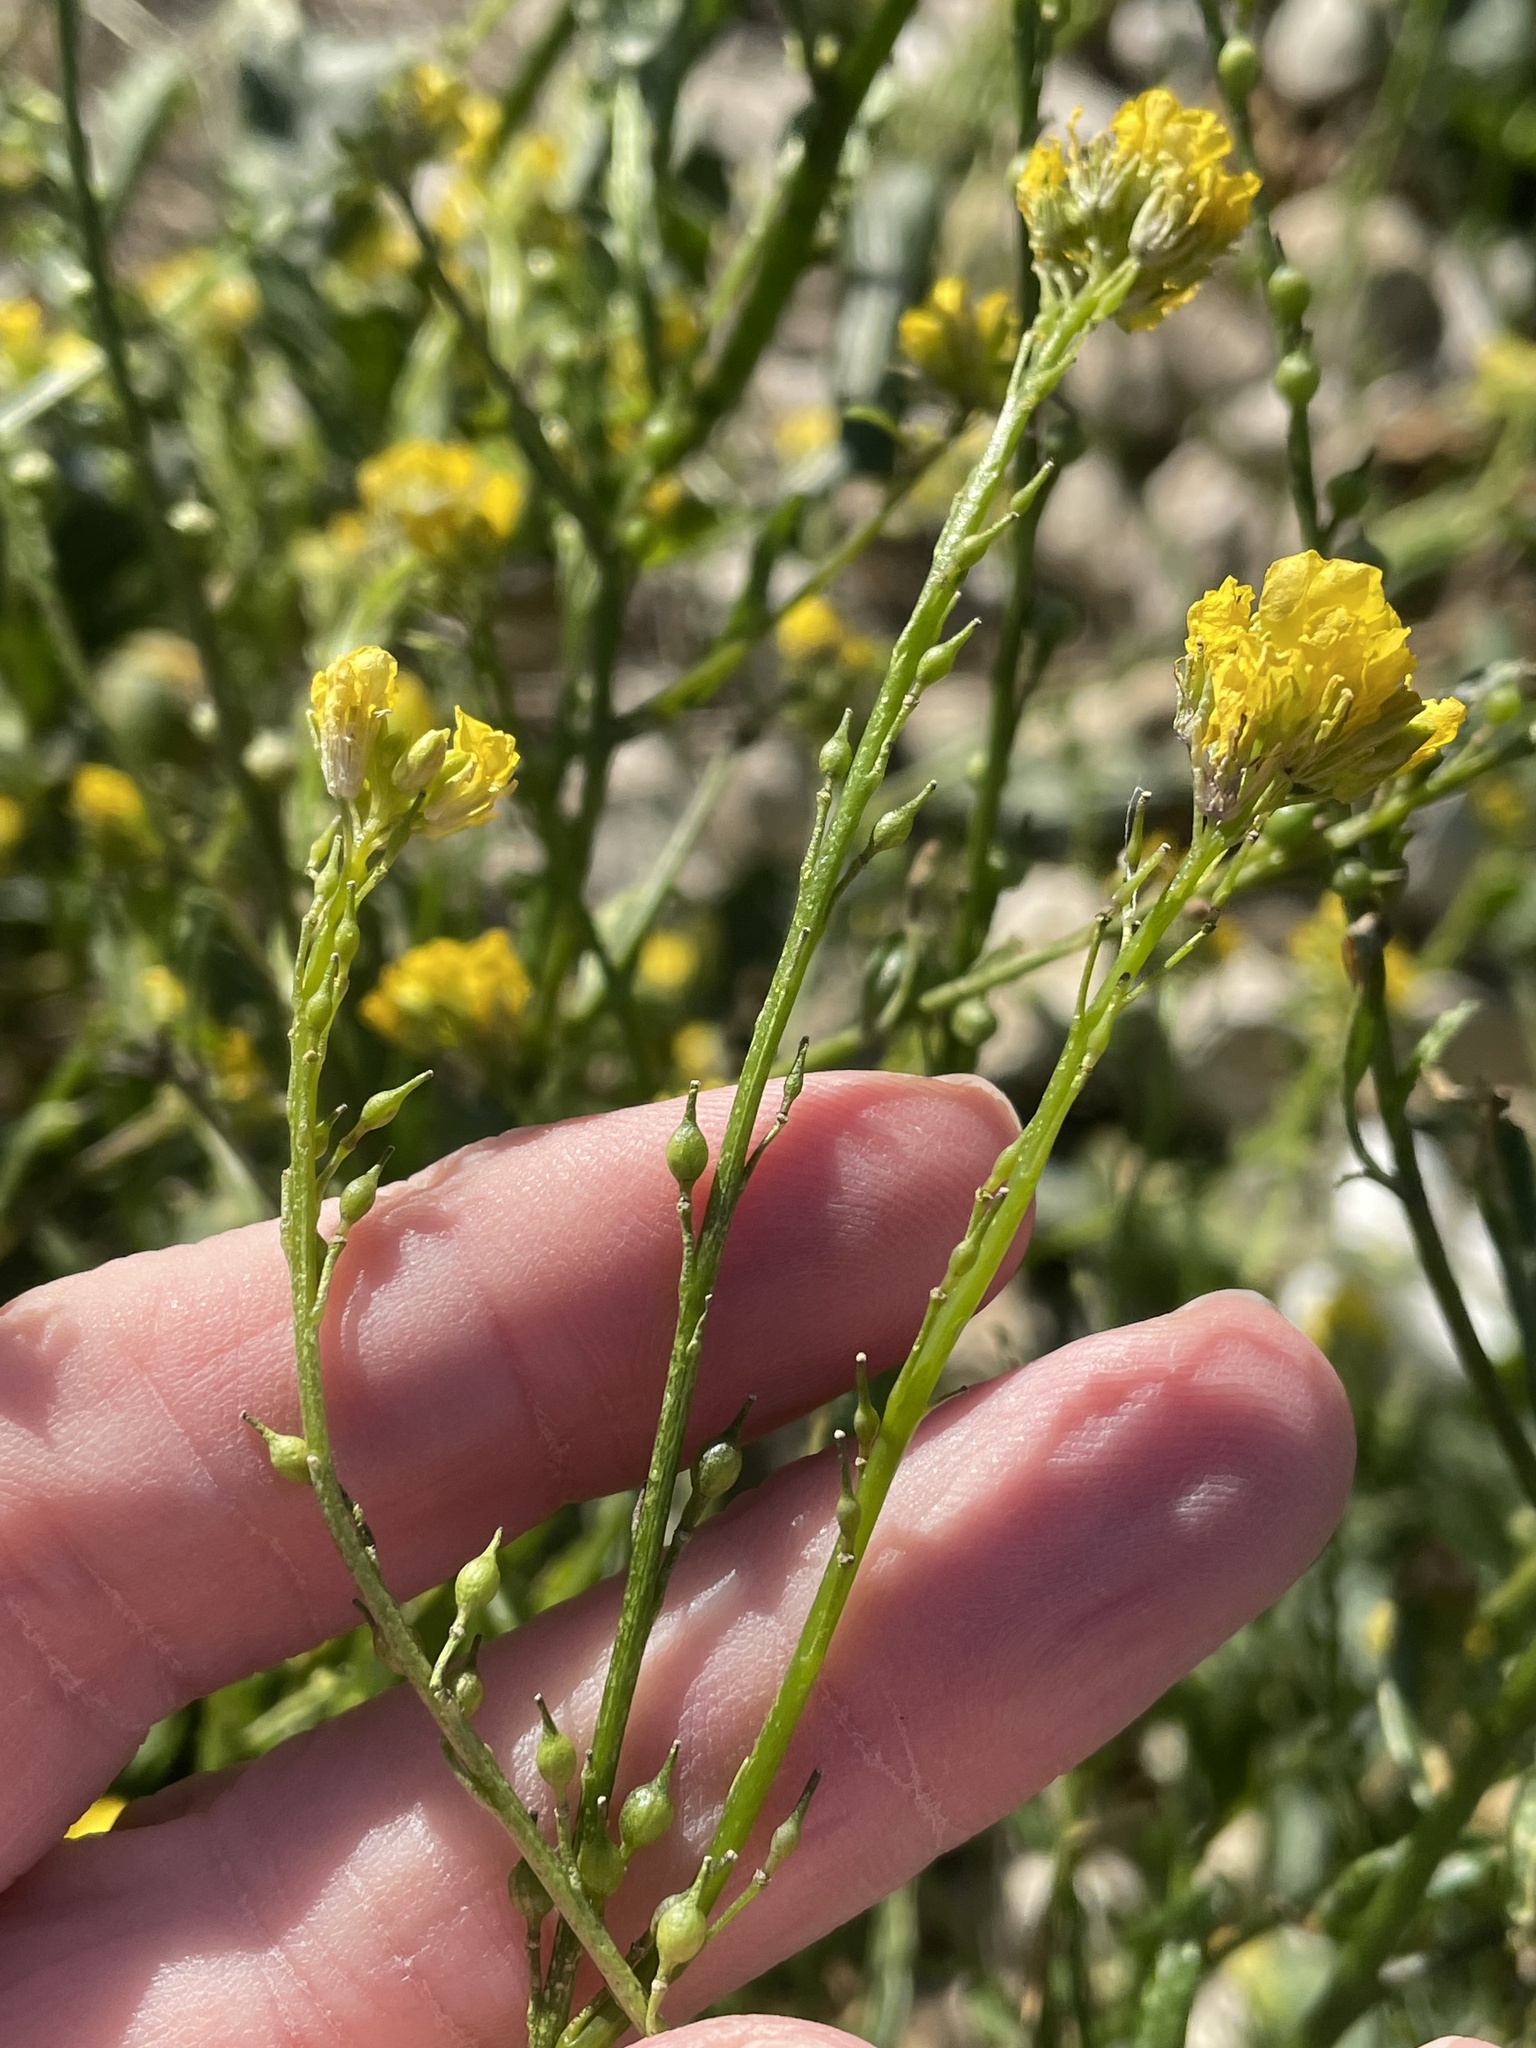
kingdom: Plantae
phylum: Tracheophyta
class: Magnoliopsida
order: Brassicales
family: Brassicaceae
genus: Rapistrum
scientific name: Rapistrum rugosum
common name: Annual bastardcabbage
